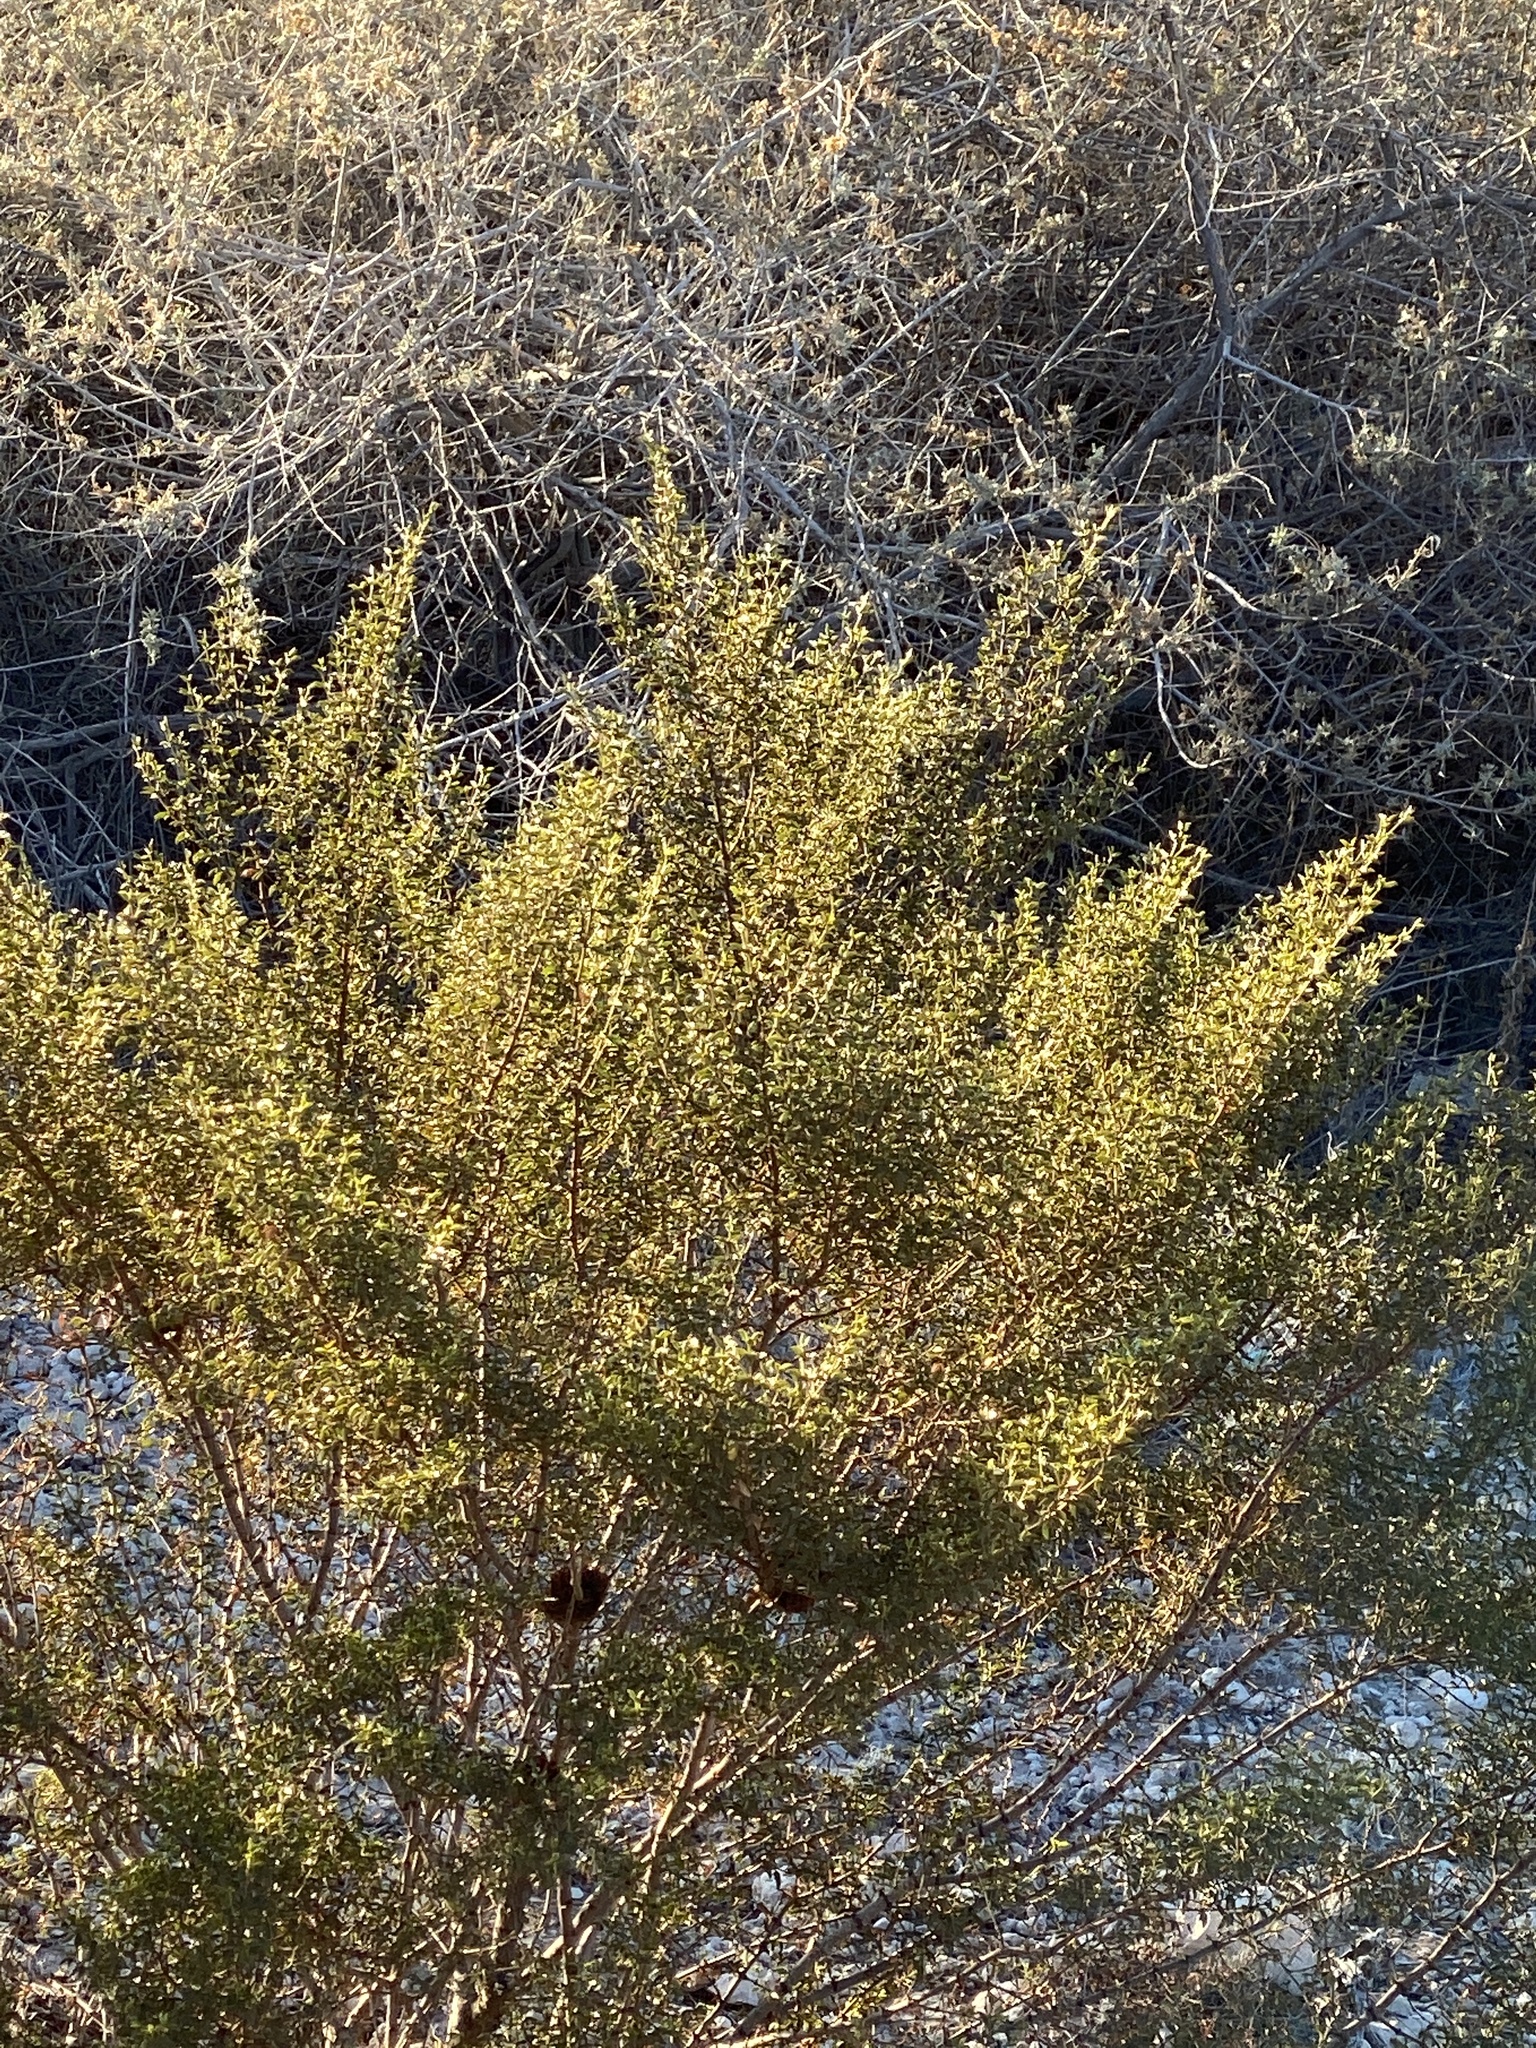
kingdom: Plantae
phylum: Tracheophyta
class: Magnoliopsida
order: Zygophyllales
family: Zygophyllaceae
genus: Larrea
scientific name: Larrea tridentata
